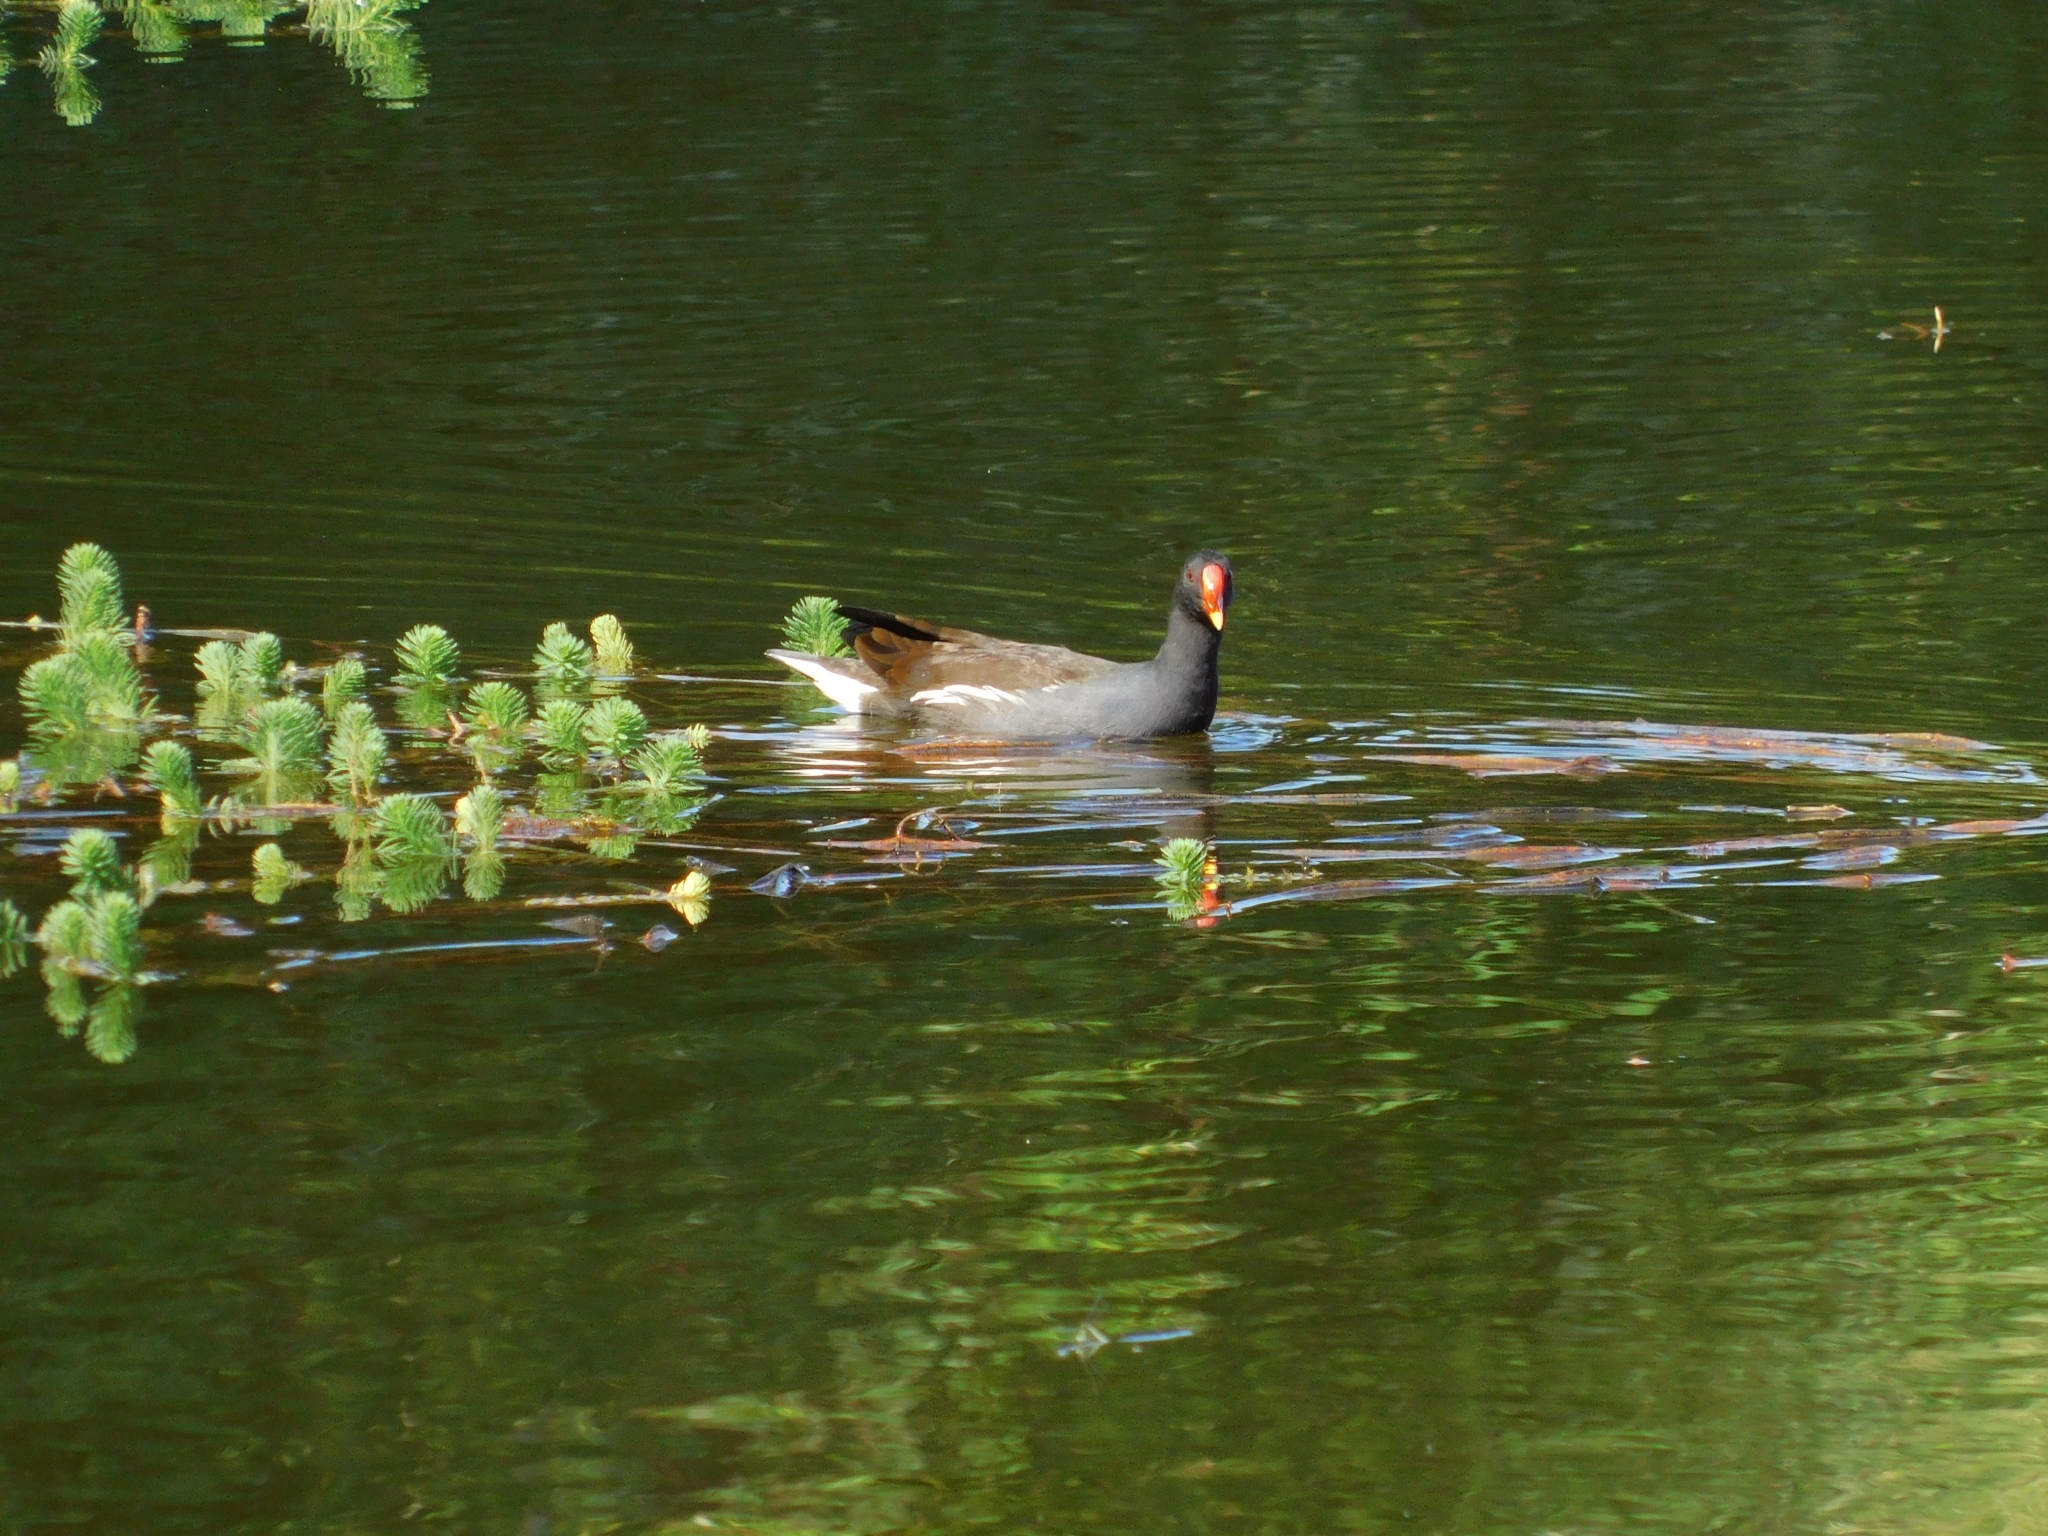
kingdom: Animalia
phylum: Chordata
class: Aves
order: Gruiformes
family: Rallidae
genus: Gallinula
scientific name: Gallinula chloropus
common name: Common moorhen
